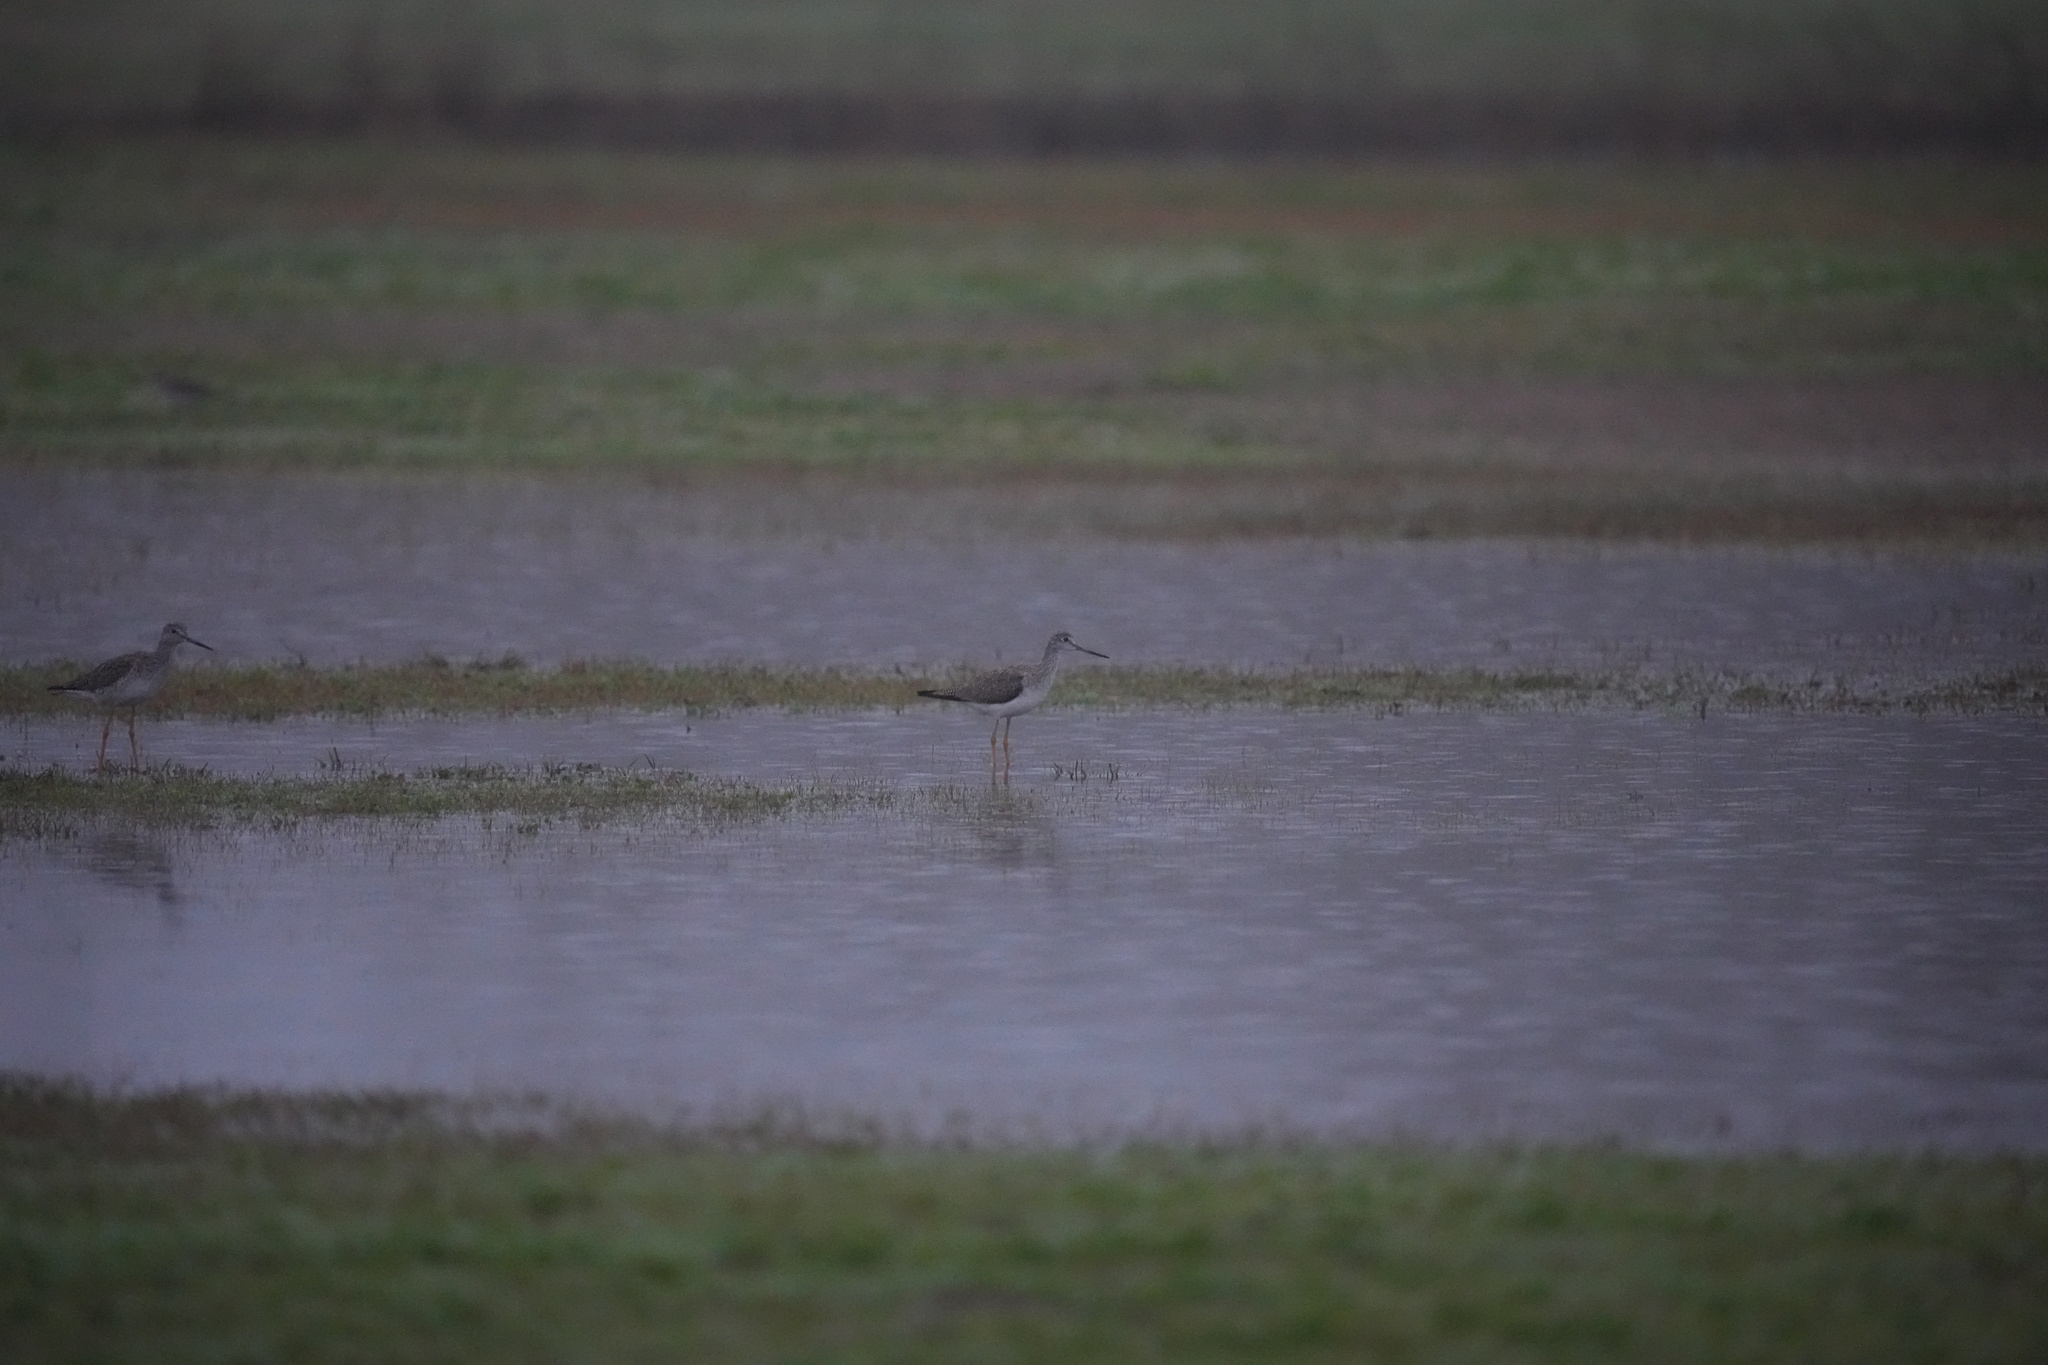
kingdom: Animalia
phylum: Chordata
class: Aves
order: Charadriiformes
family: Scolopacidae
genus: Tringa
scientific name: Tringa melanoleuca
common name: Greater yellowlegs
